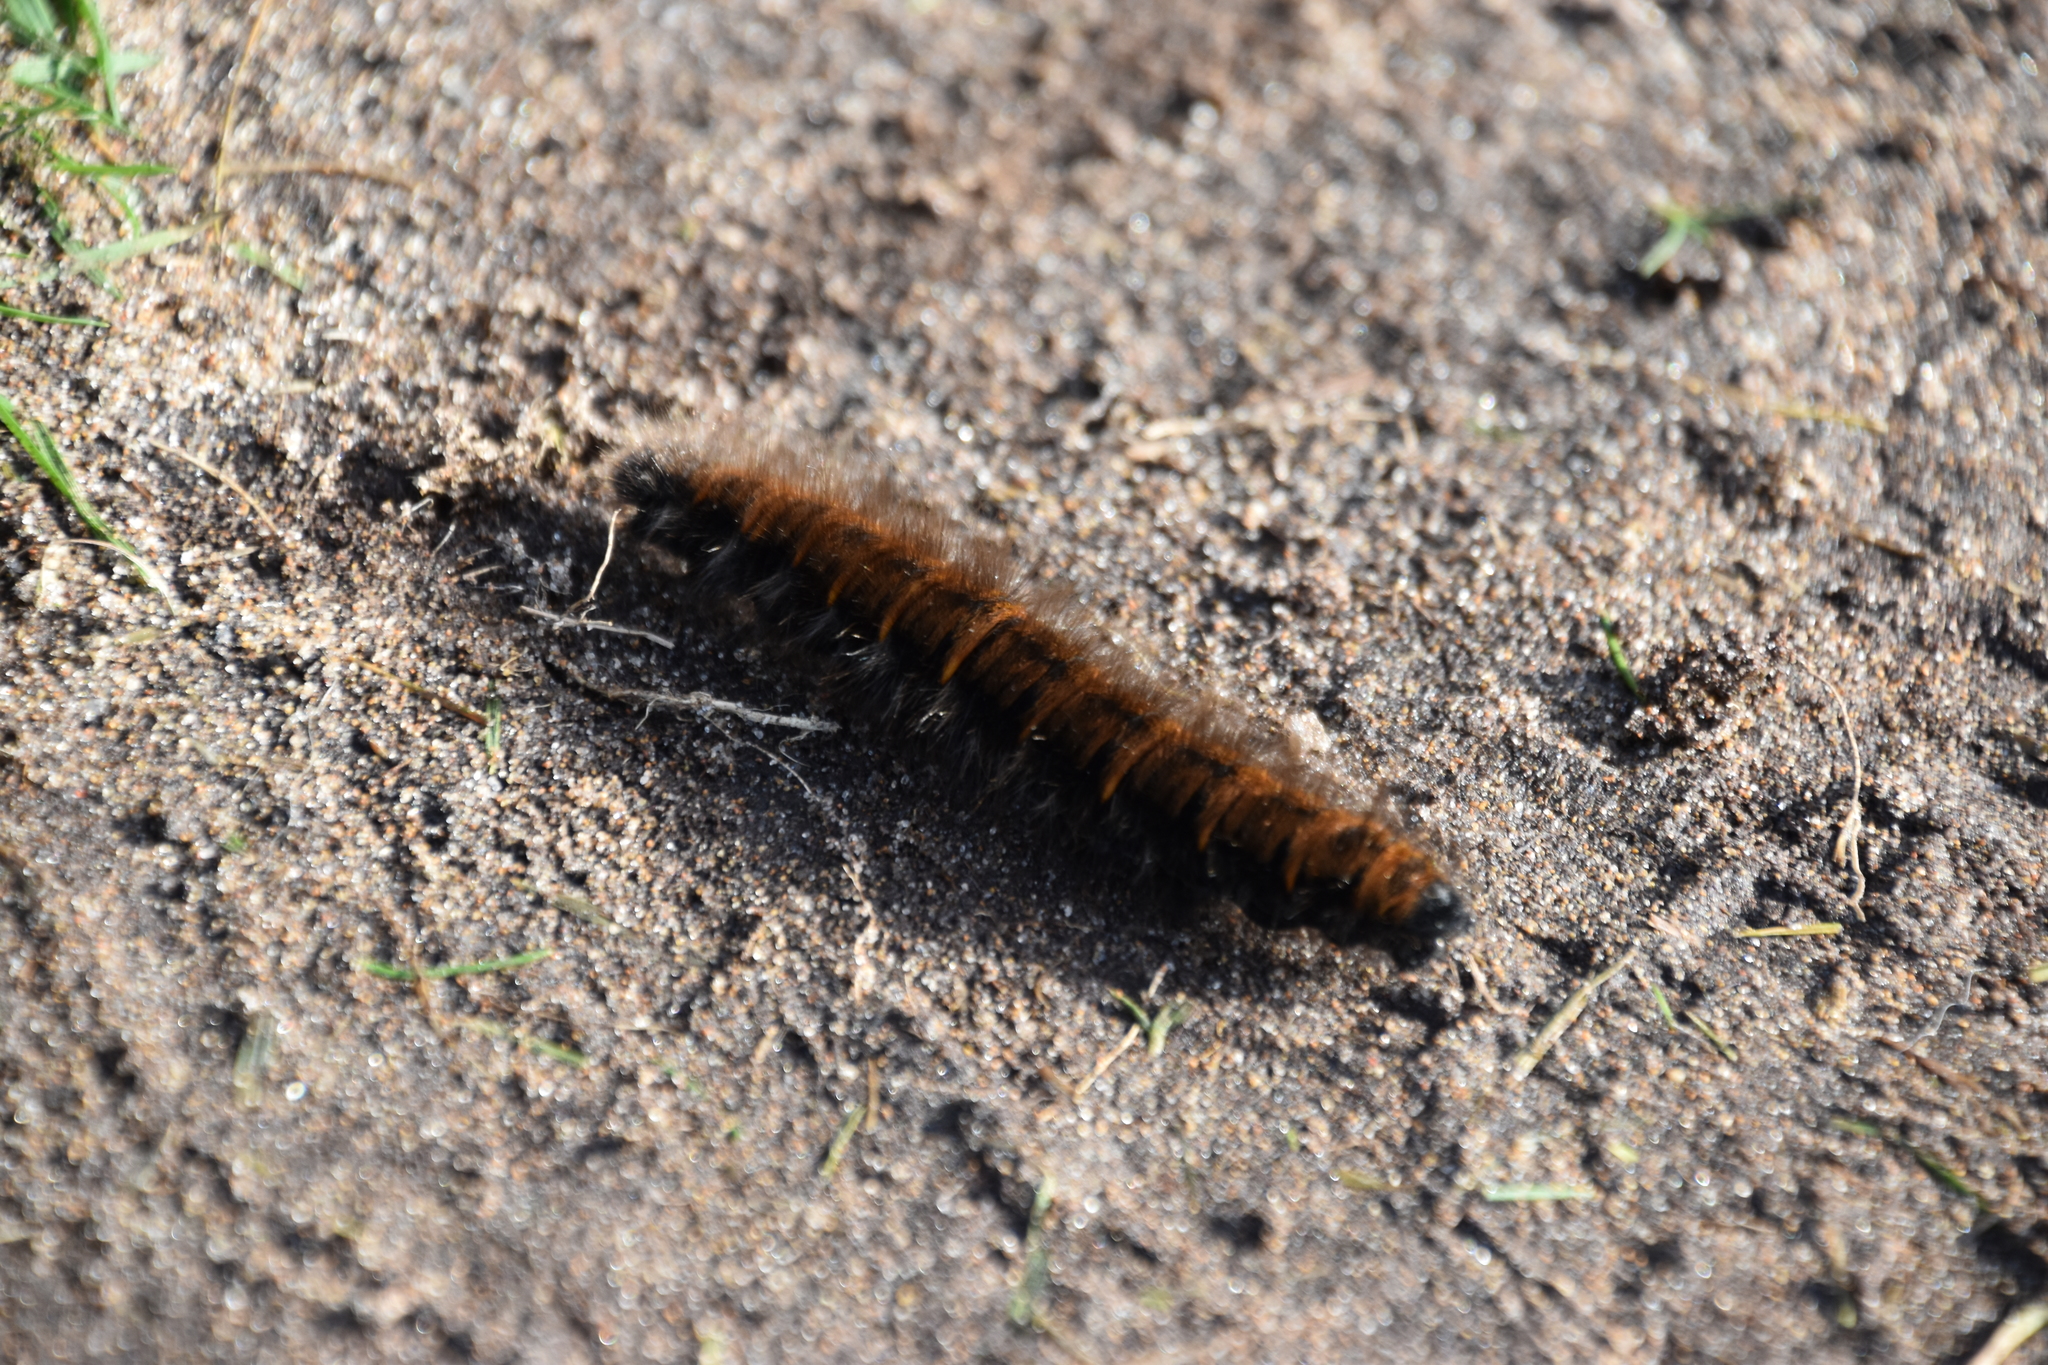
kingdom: Animalia
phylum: Arthropoda
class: Insecta
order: Lepidoptera
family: Lasiocampidae
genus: Macrothylacia
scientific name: Macrothylacia rubi
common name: Fox moth
